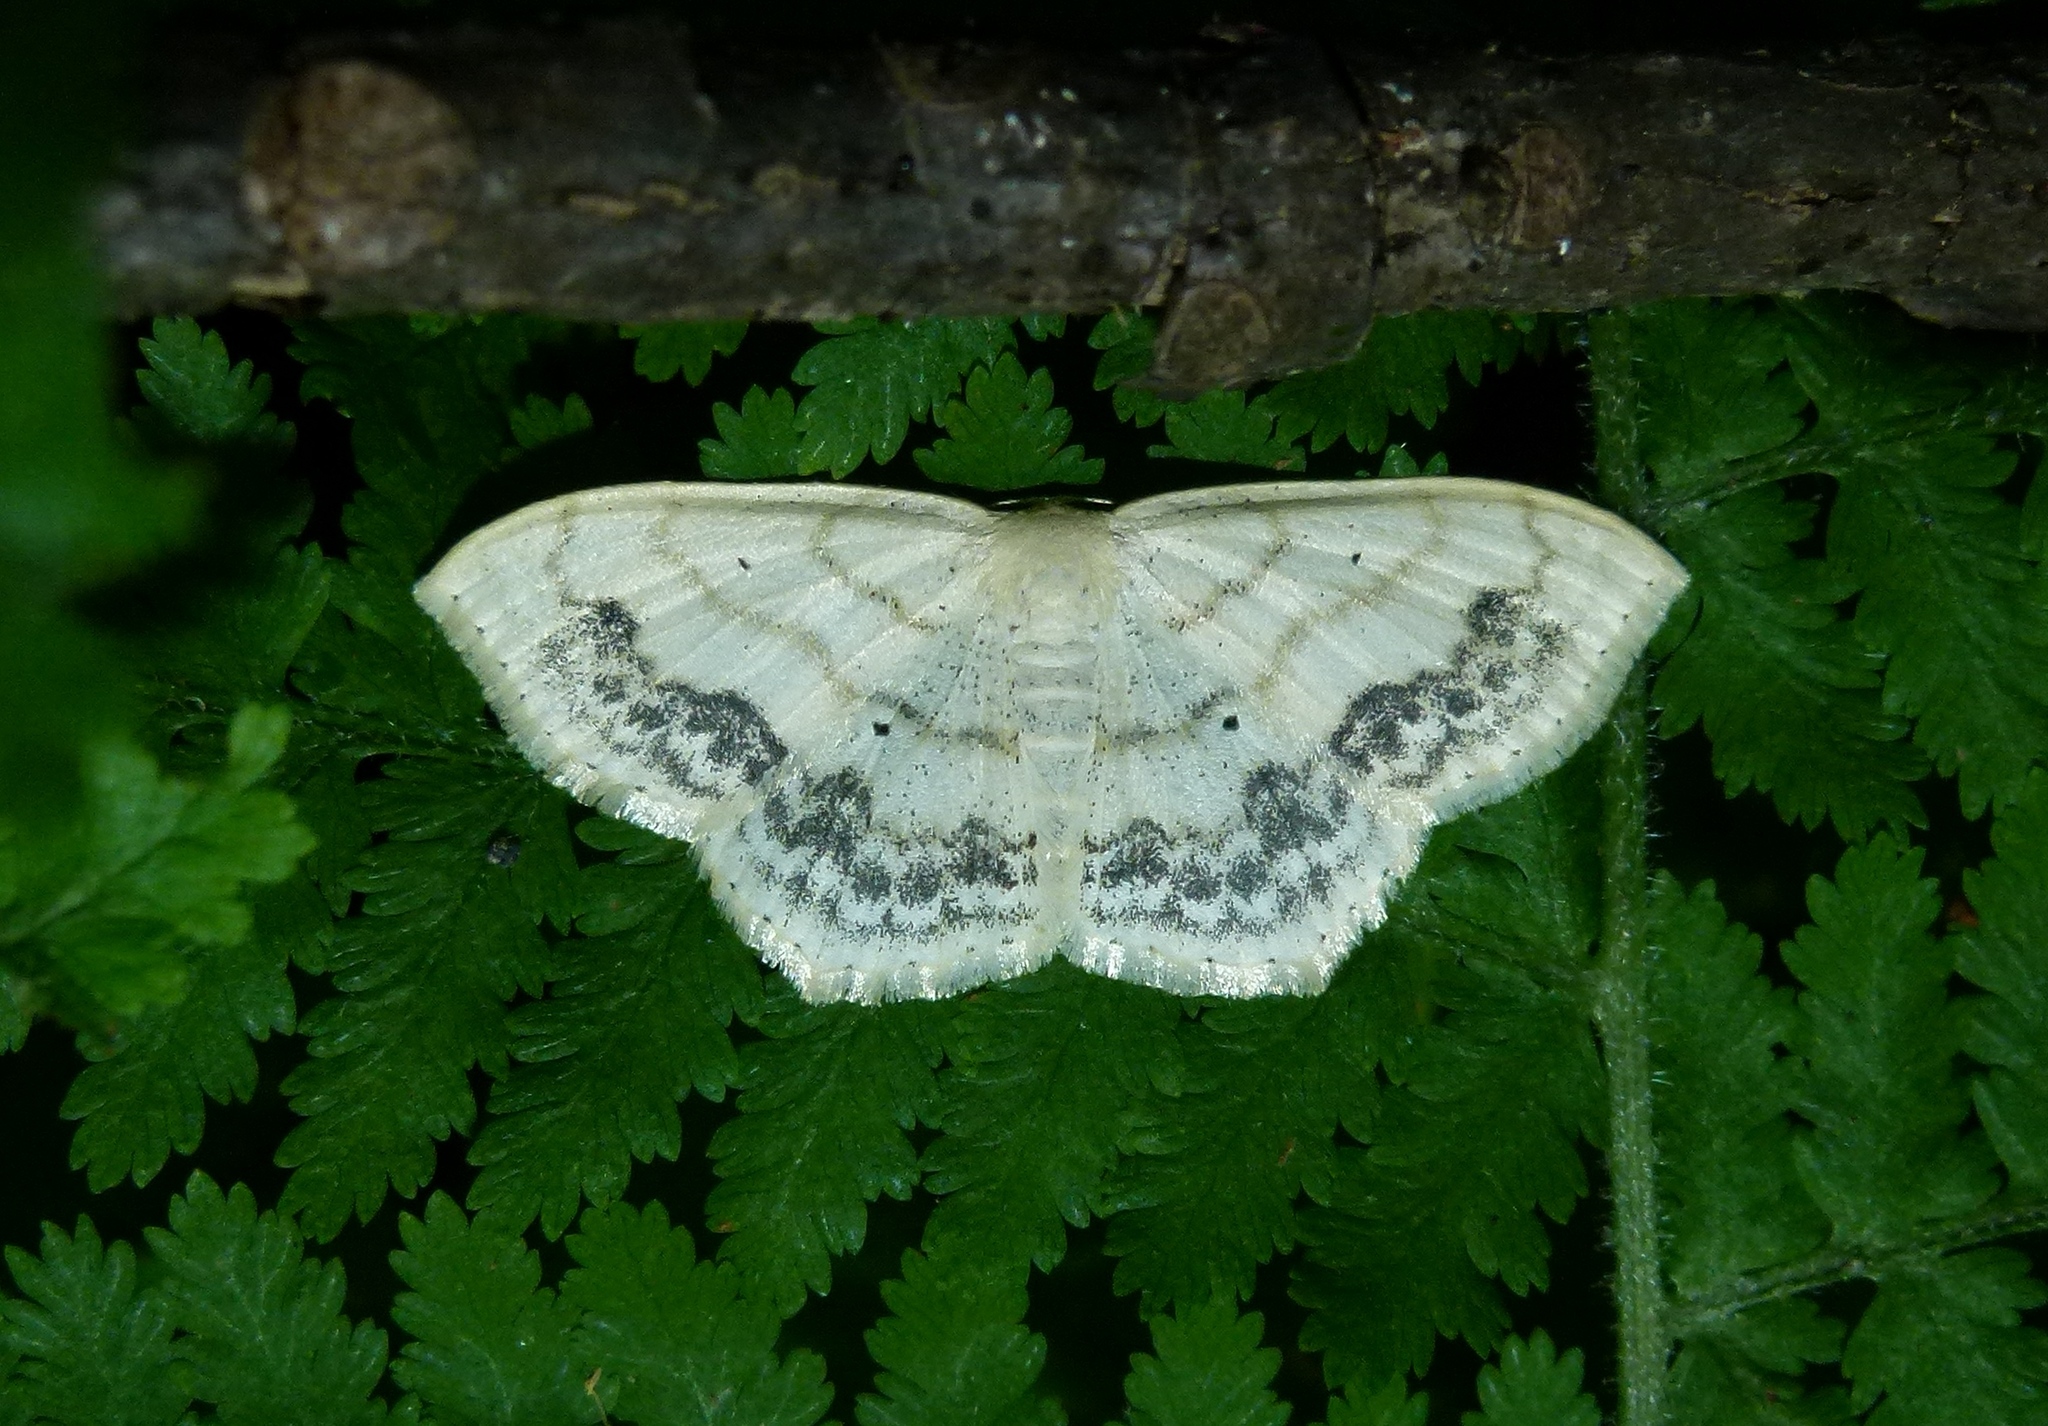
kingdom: Animalia
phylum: Arthropoda
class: Insecta
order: Lepidoptera
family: Geometridae
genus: Scopula
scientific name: Scopula limboundata
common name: Large lace border
